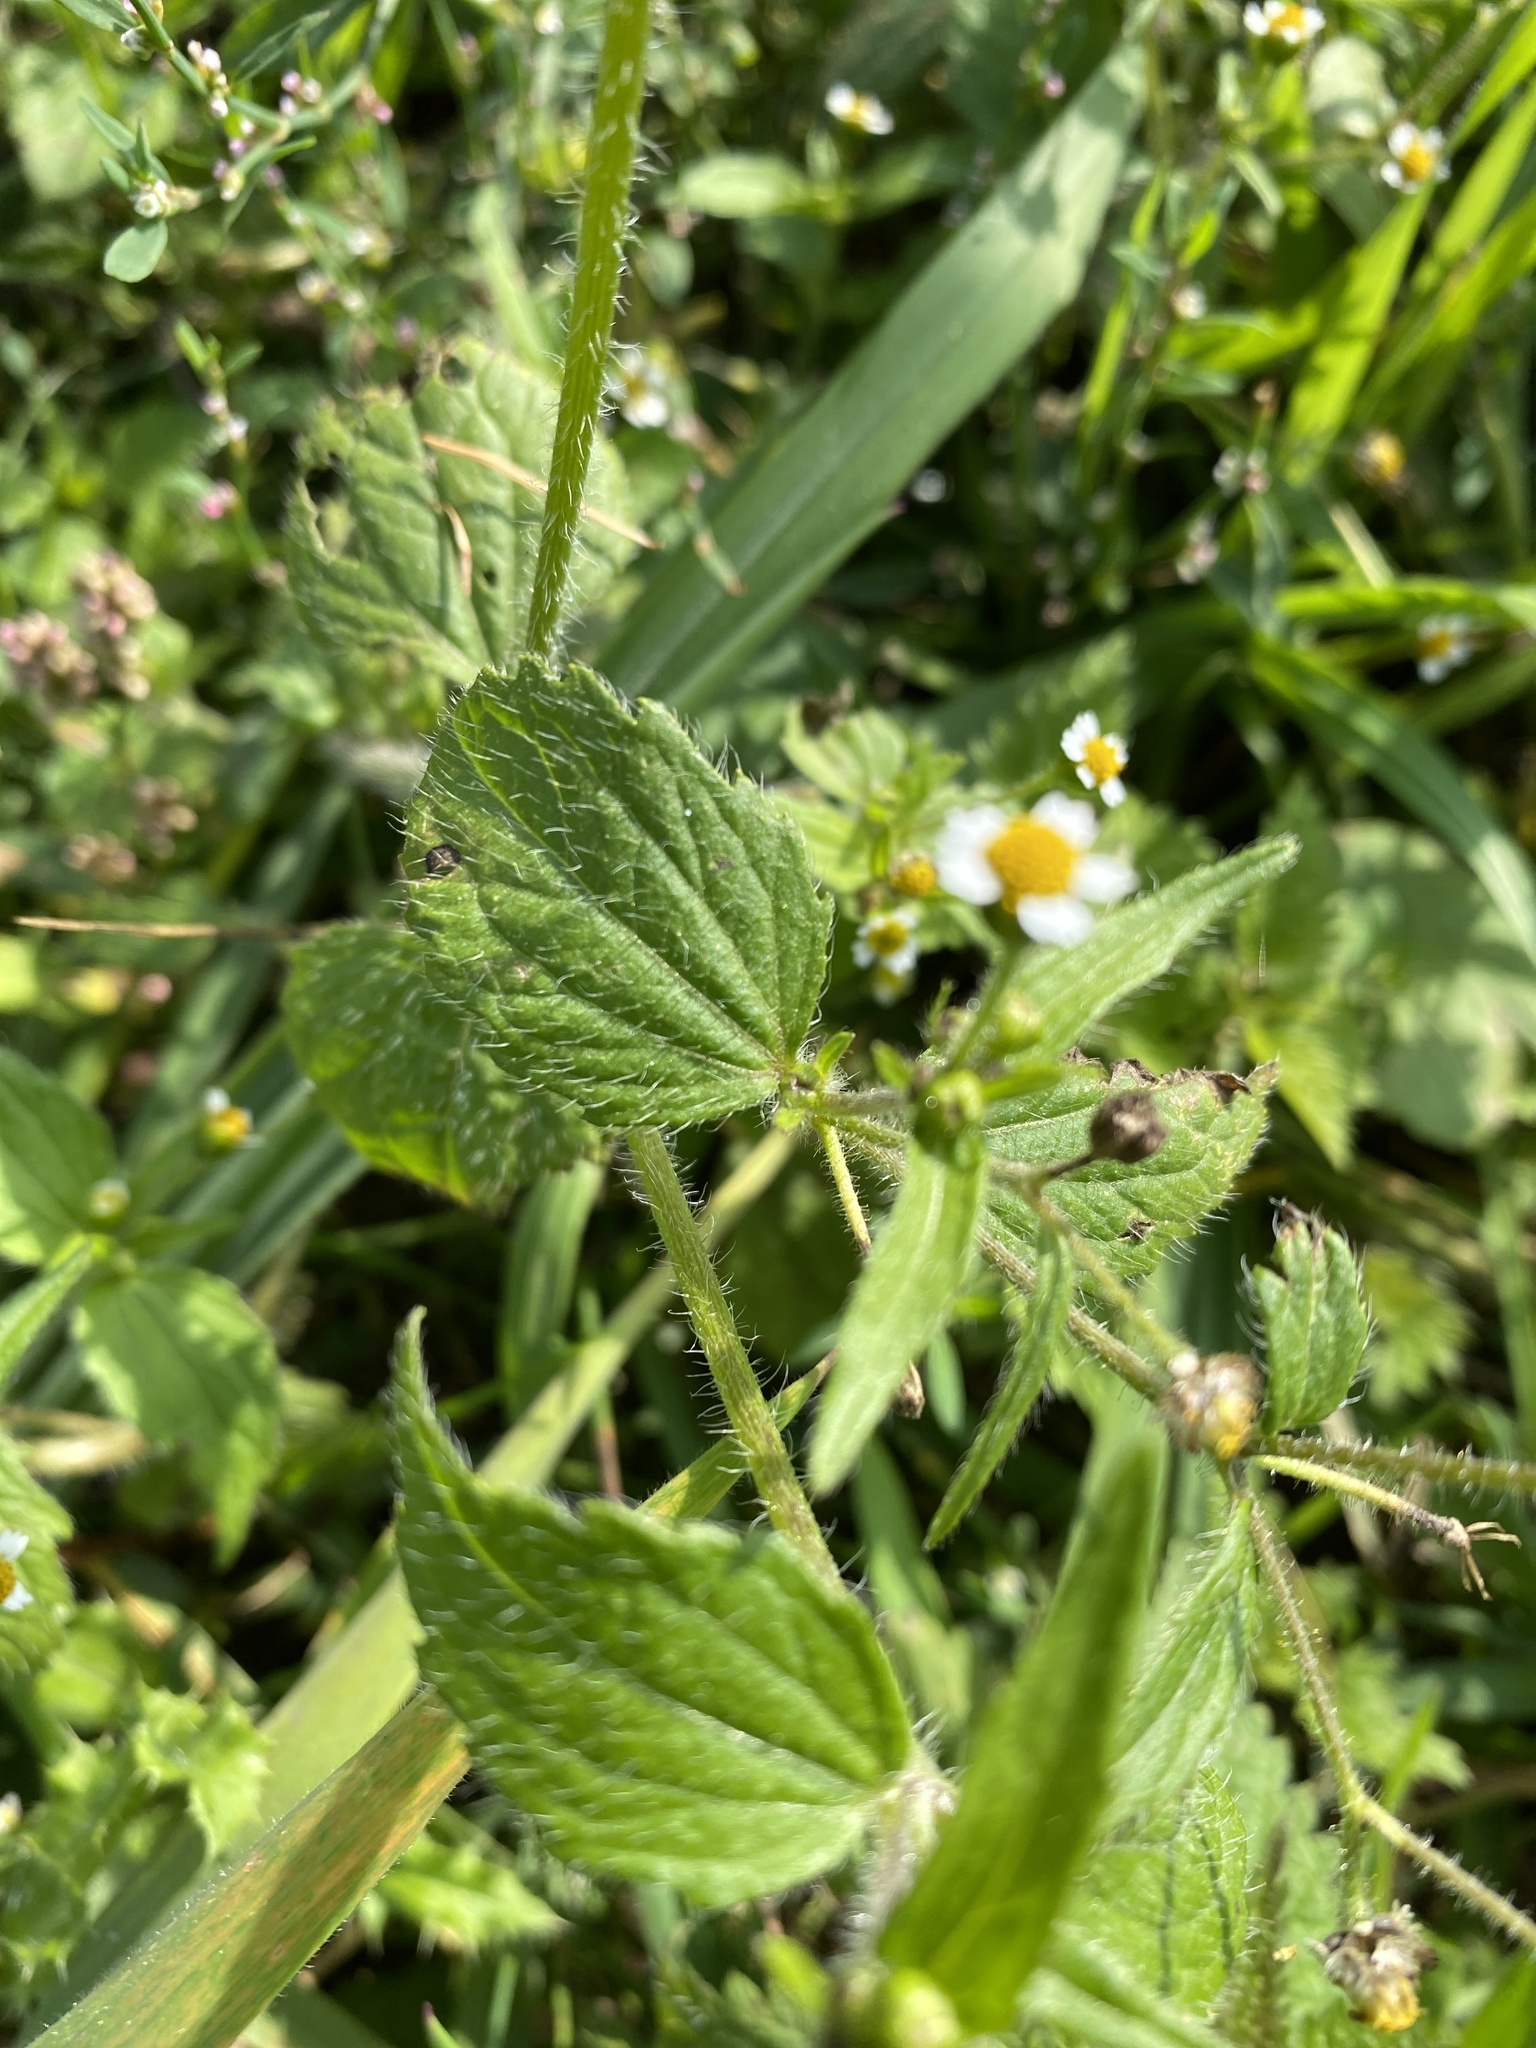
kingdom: Plantae
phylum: Tracheophyta
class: Magnoliopsida
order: Asterales
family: Asteraceae
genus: Galinsoga
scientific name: Galinsoga quadriradiata
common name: Shaggy soldier
